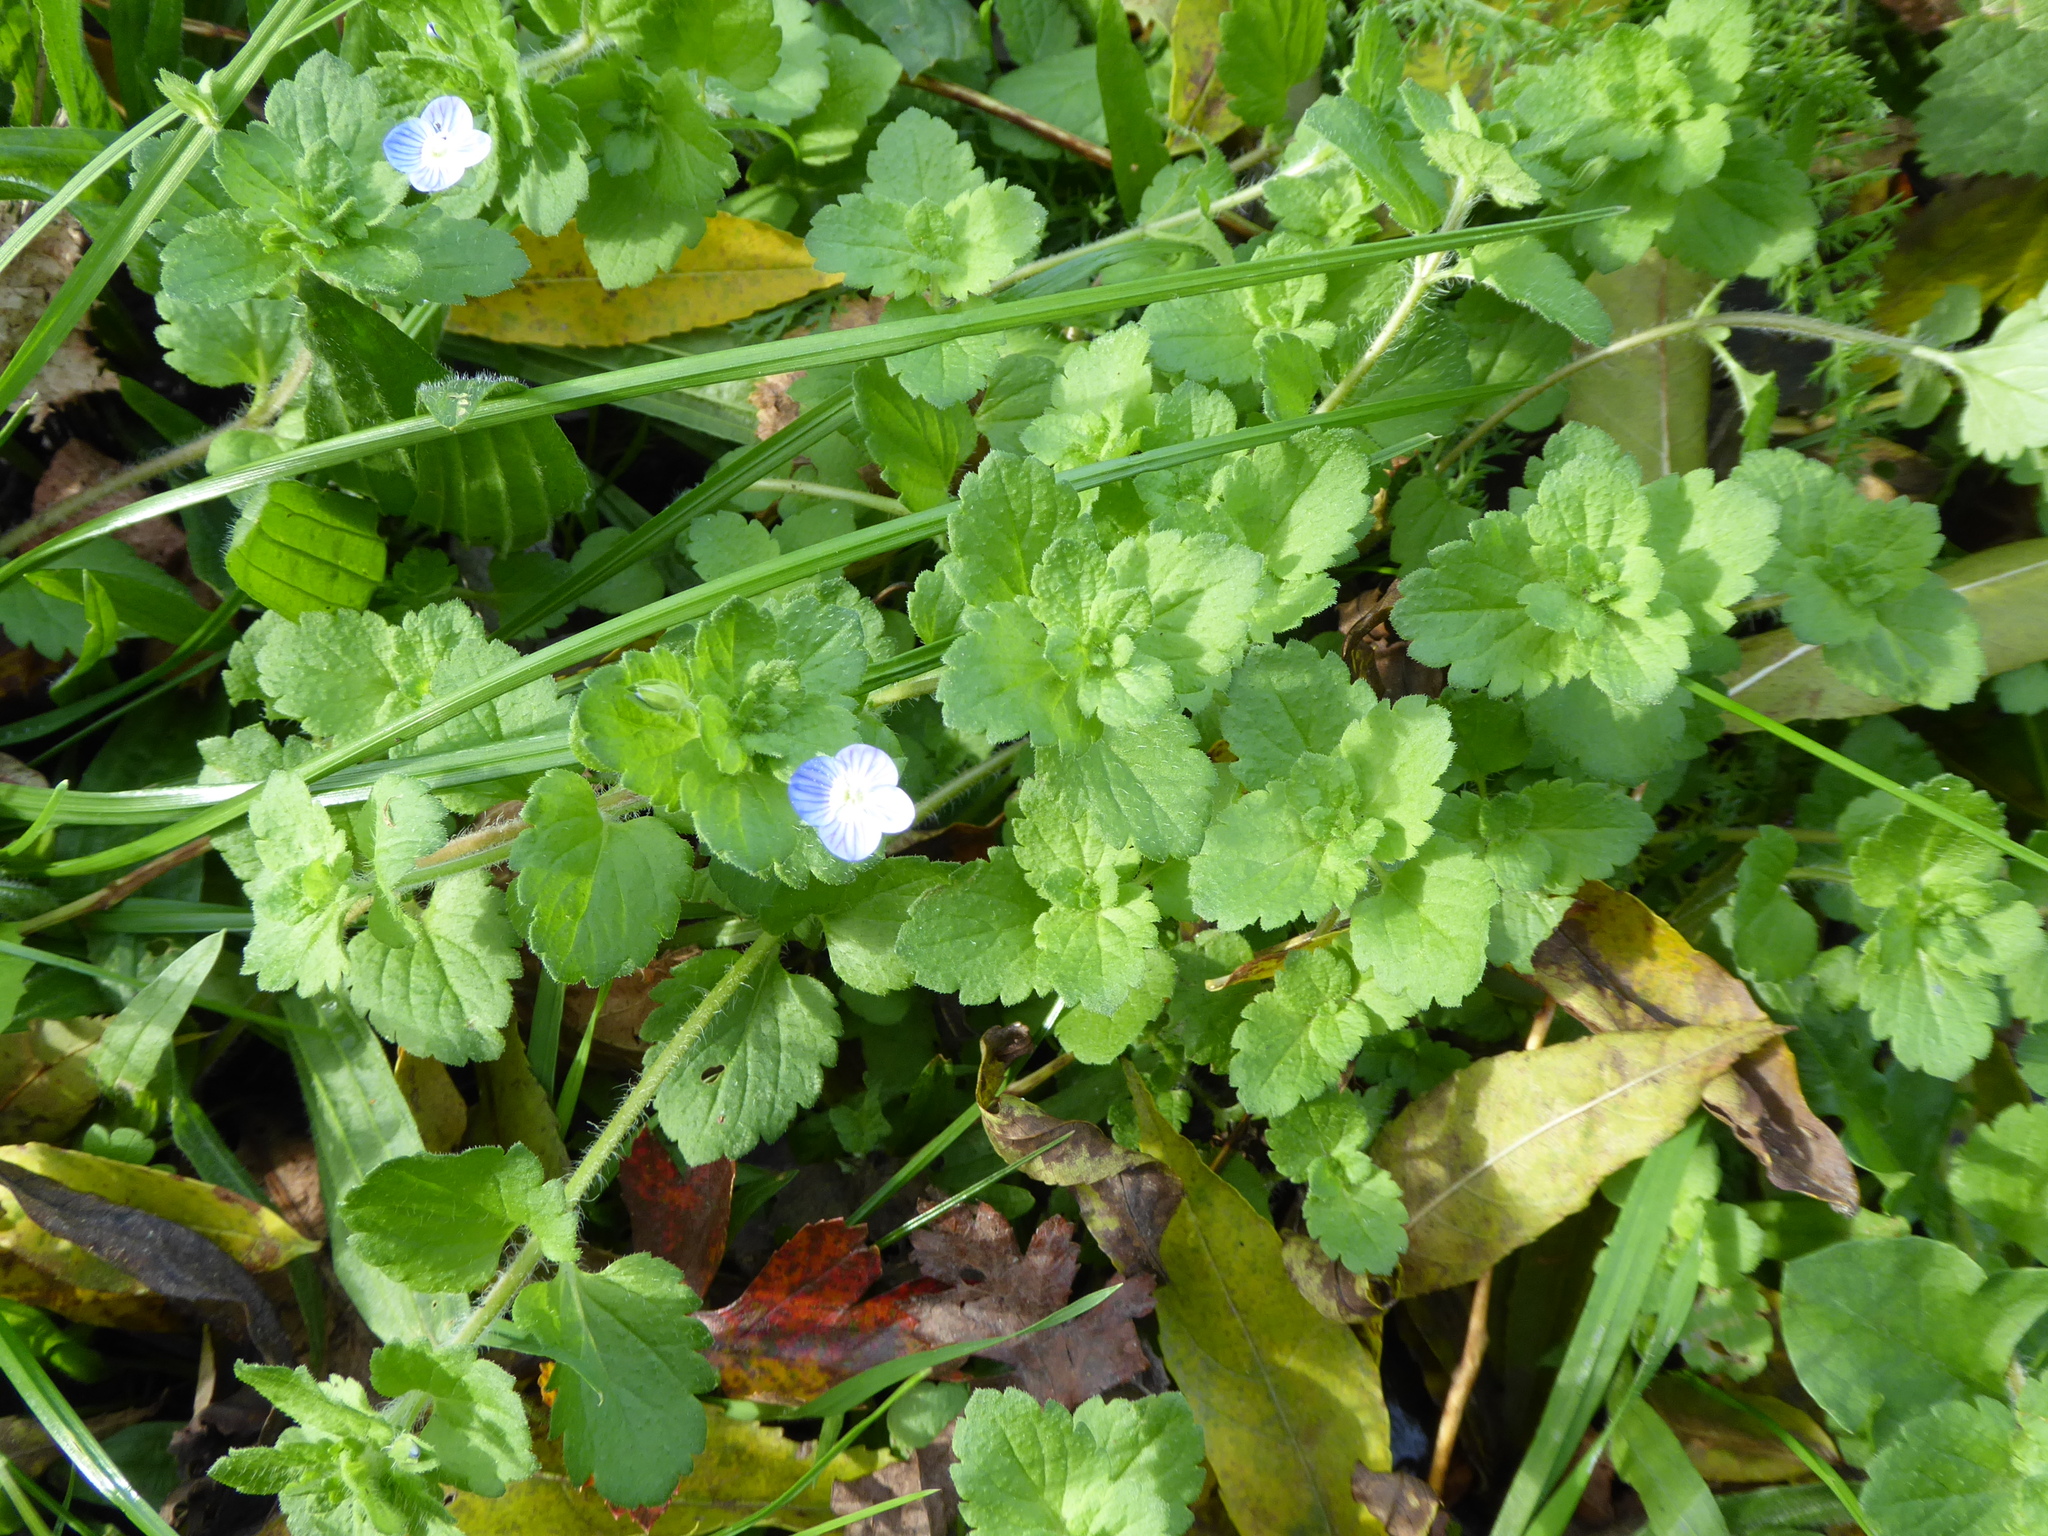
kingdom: Plantae
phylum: Tracheophyta
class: Magnoliopsida
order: Lamiales
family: Plantaginaceae
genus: Veronica
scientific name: Veronica persica
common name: Common field-speedwell
